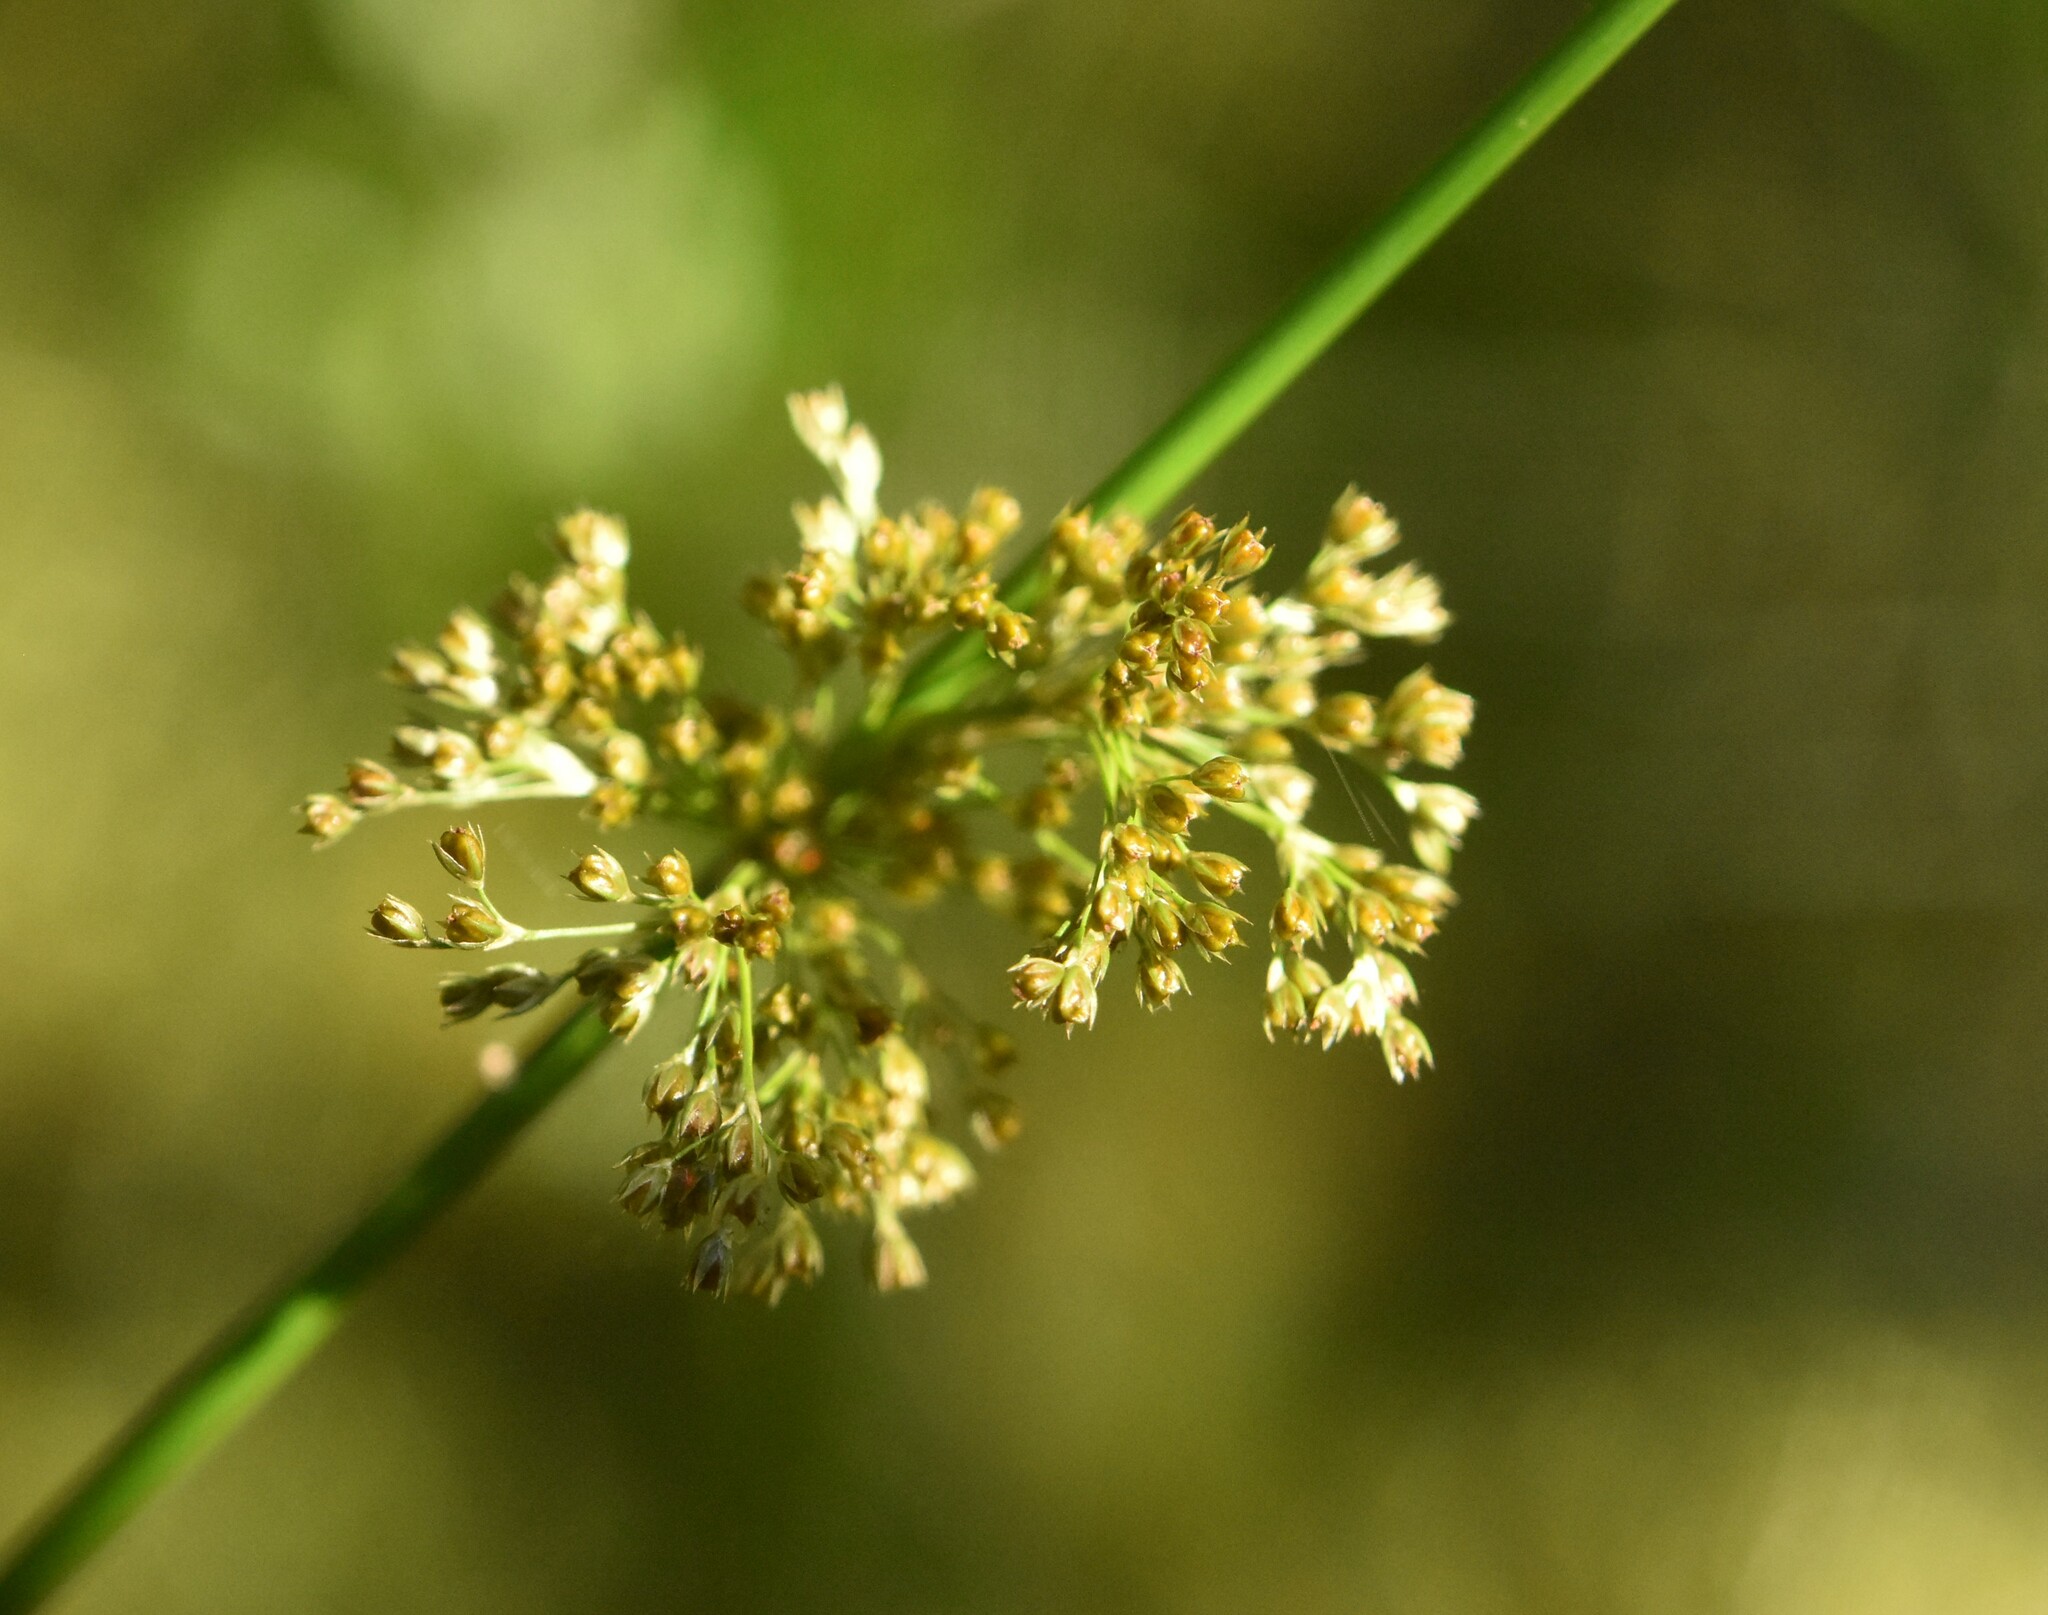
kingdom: Plantae
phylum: Tracheophyta
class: Liliopsida
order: Poales
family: Juncaceae
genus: Juncus
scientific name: Juncus effusus
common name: Soft rush
